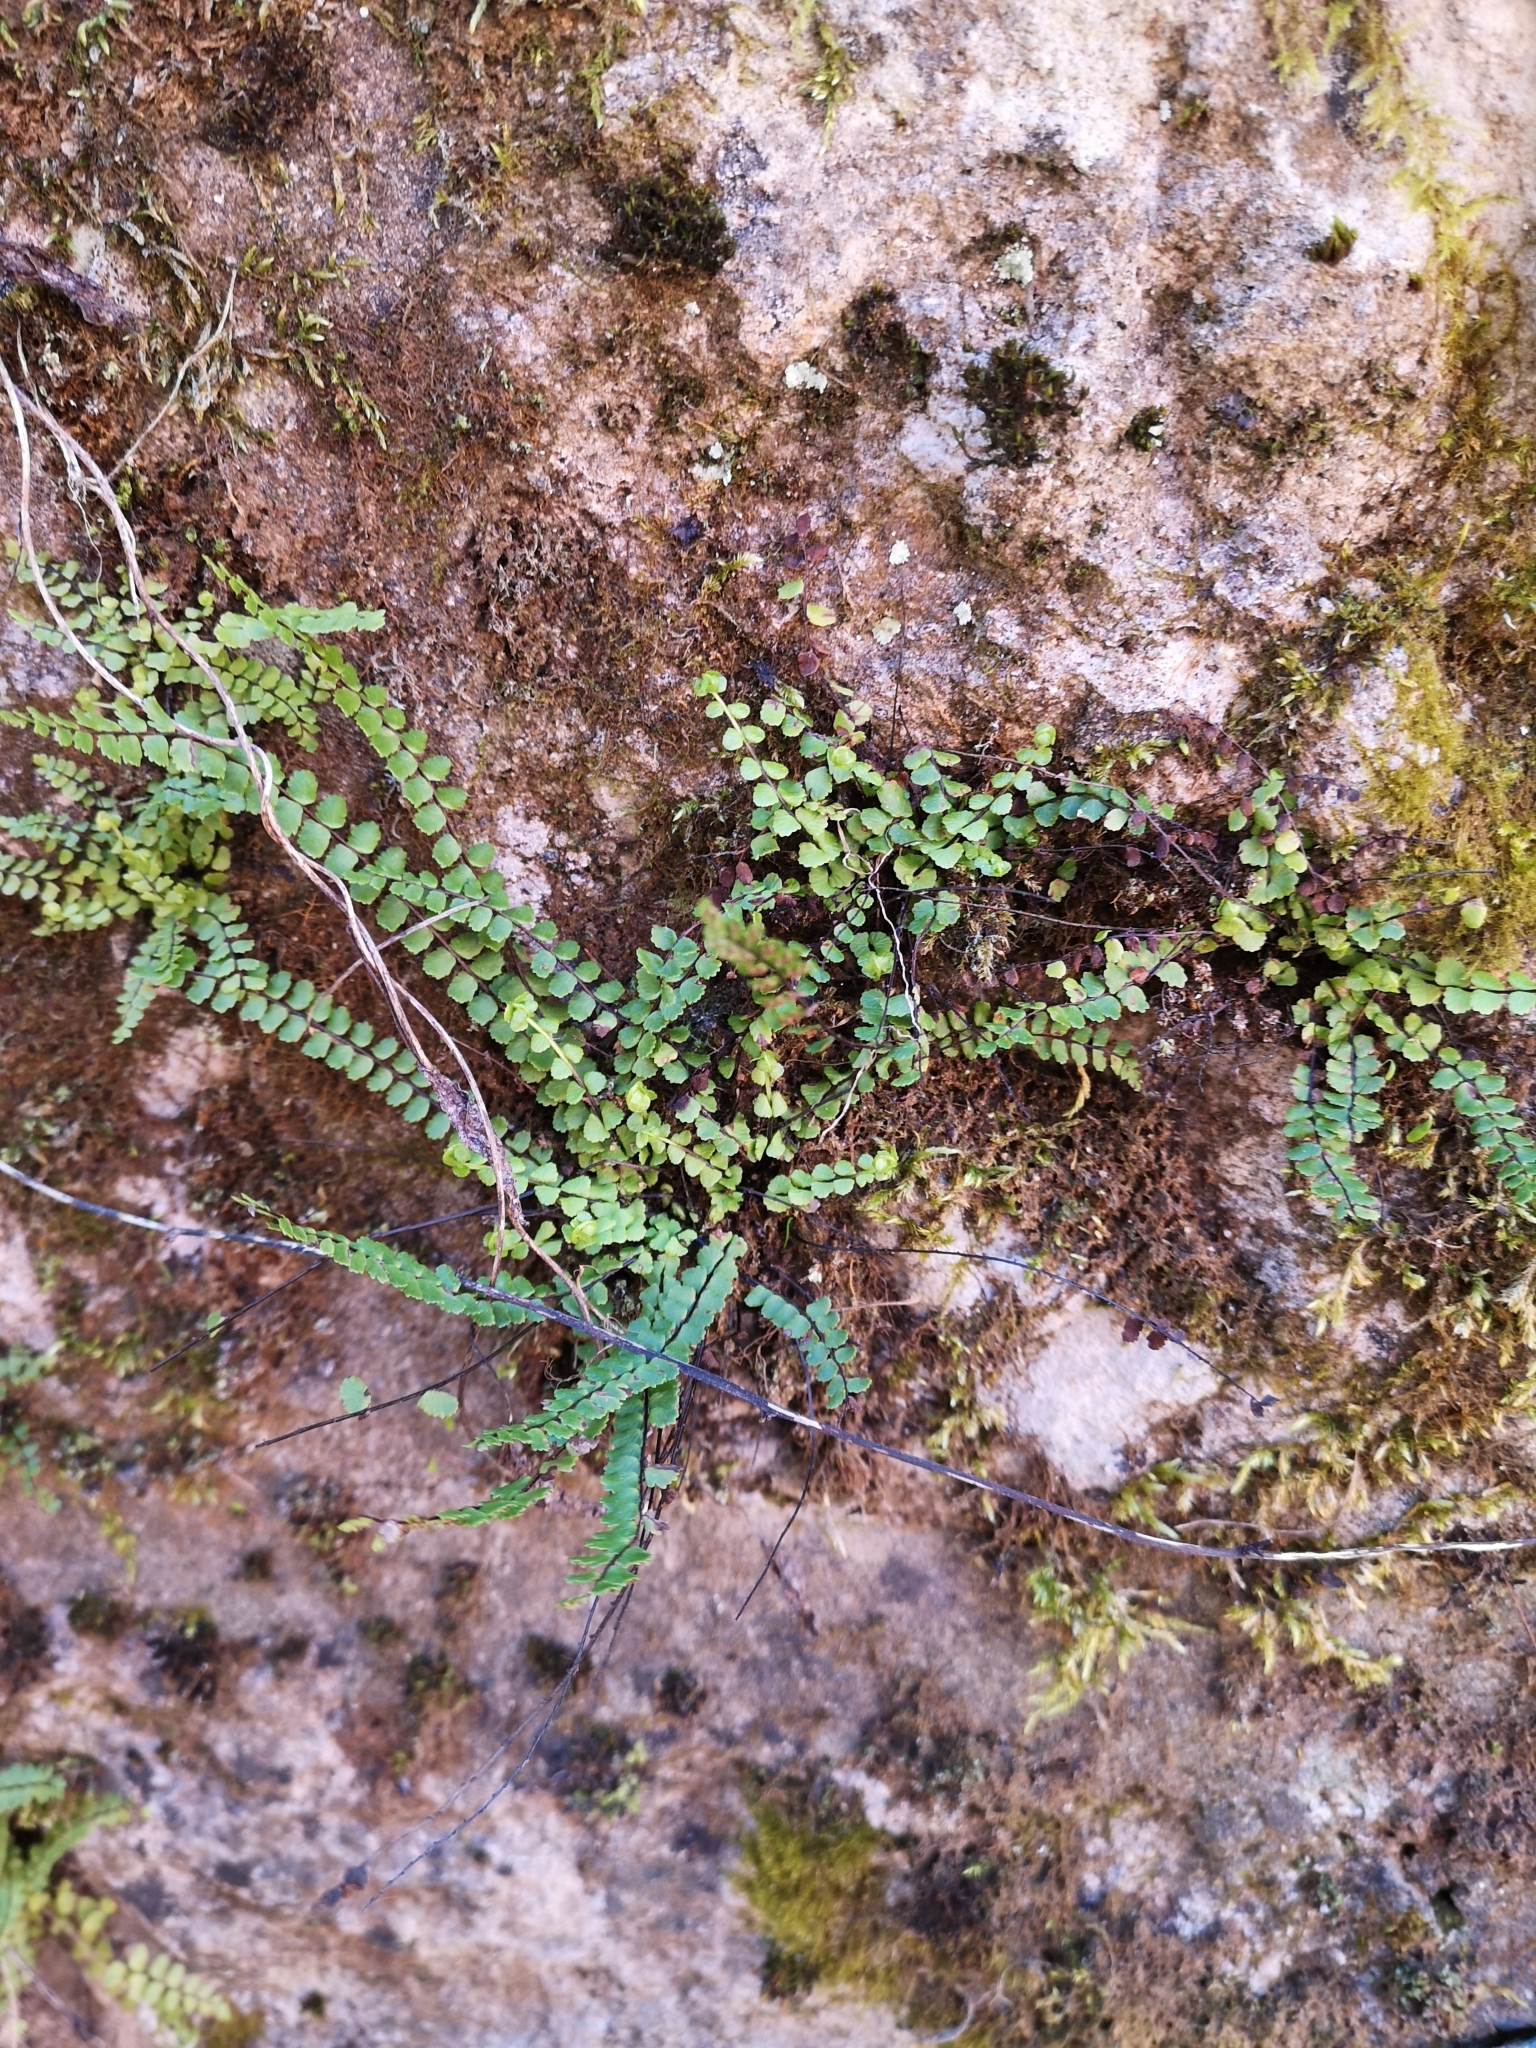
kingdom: Plantae
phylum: Tracheophyta
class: Polypodiopsida
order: Polypodiales
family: Aspleniaceae
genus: Asplenium
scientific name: Asplenium trichomanes
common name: Maidenhair spleenwort
